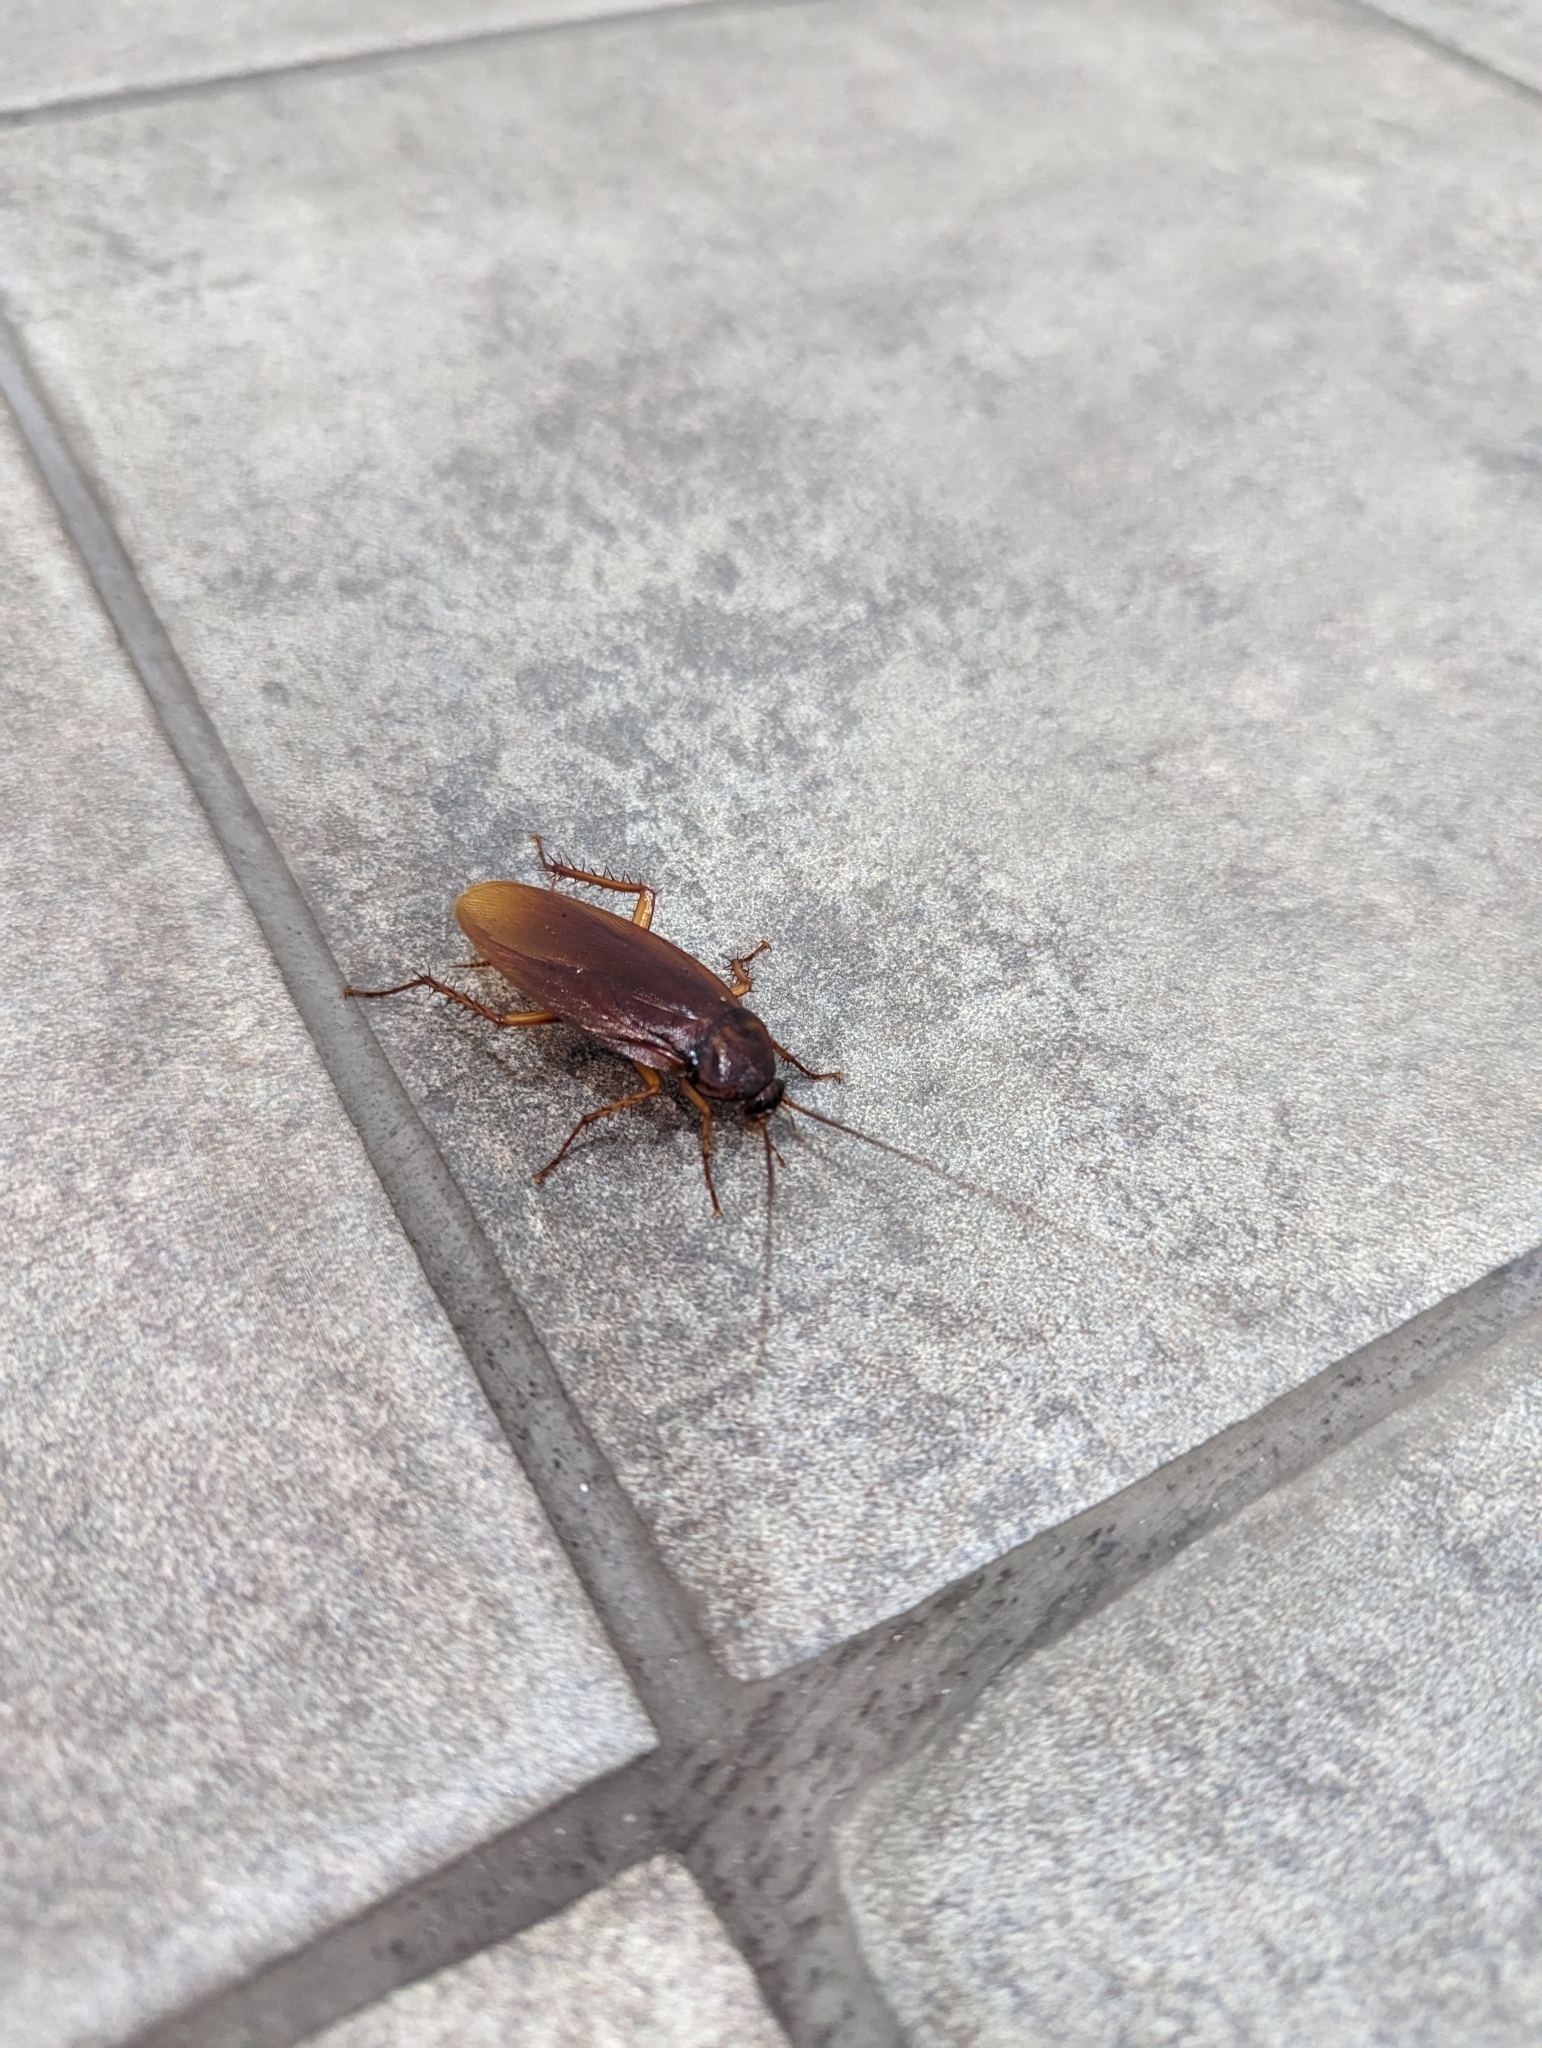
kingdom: Animalia
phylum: Arthropoda
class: Insecta
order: Blattodea
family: Blattidae
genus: Periplaneta
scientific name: Periplaneta americana
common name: American cockroach
